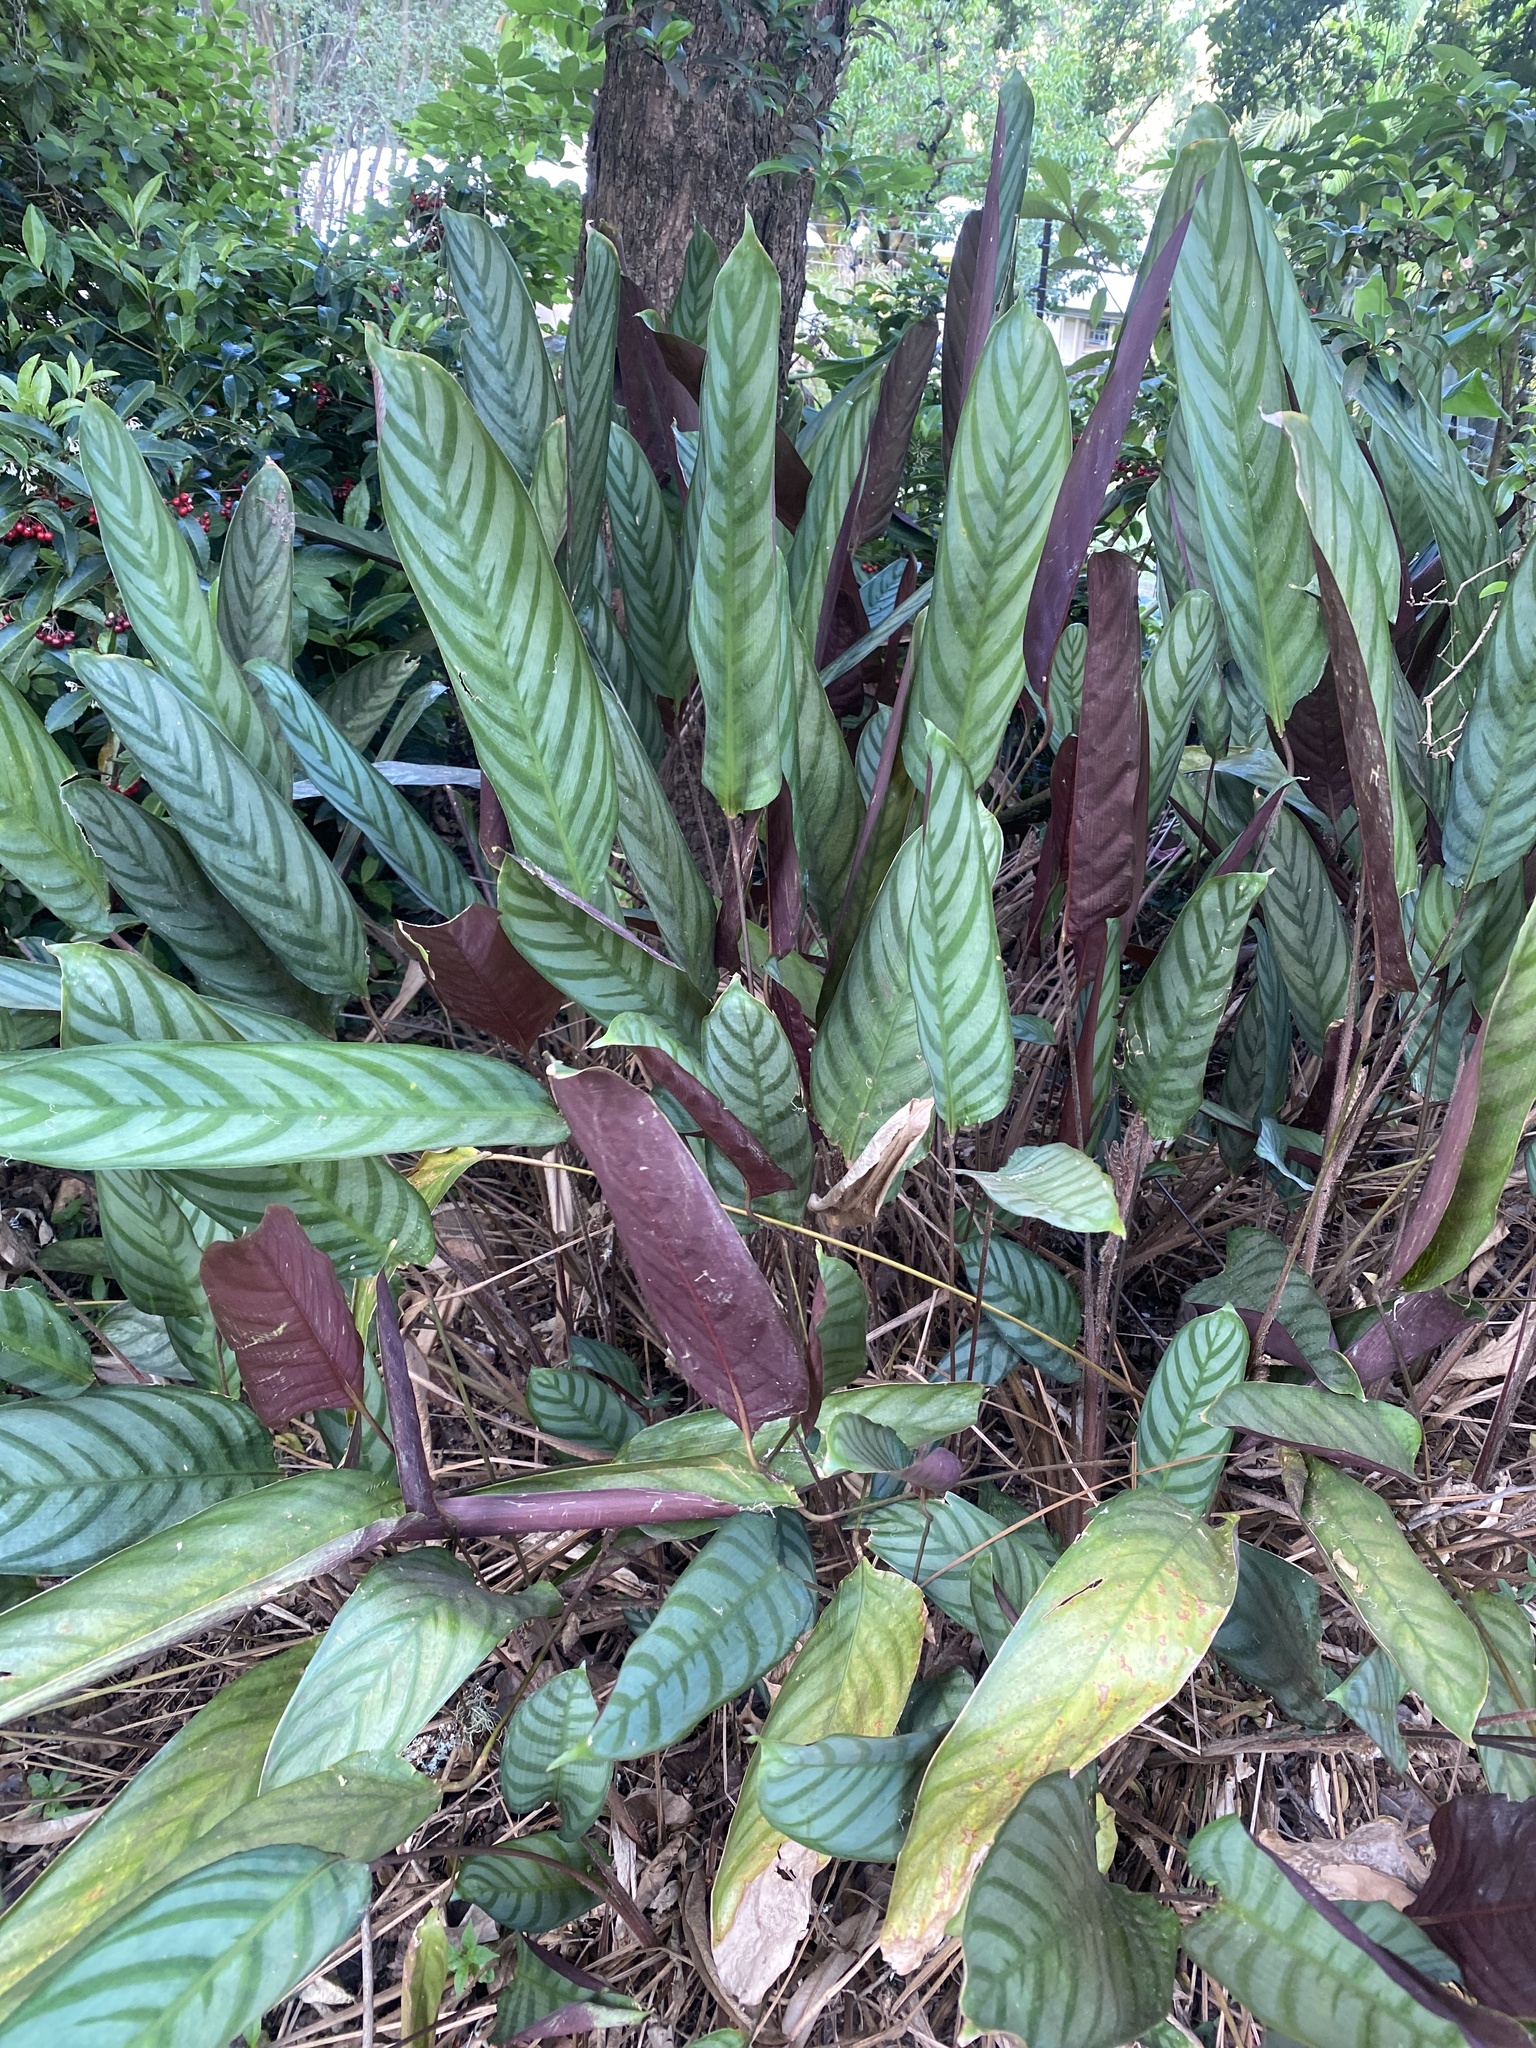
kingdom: Plantae
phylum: Tracheophyta
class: Liliopsida
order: Zingiberales
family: Marantaceae
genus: Ctenanthe
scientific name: Ctenanthe setosa
